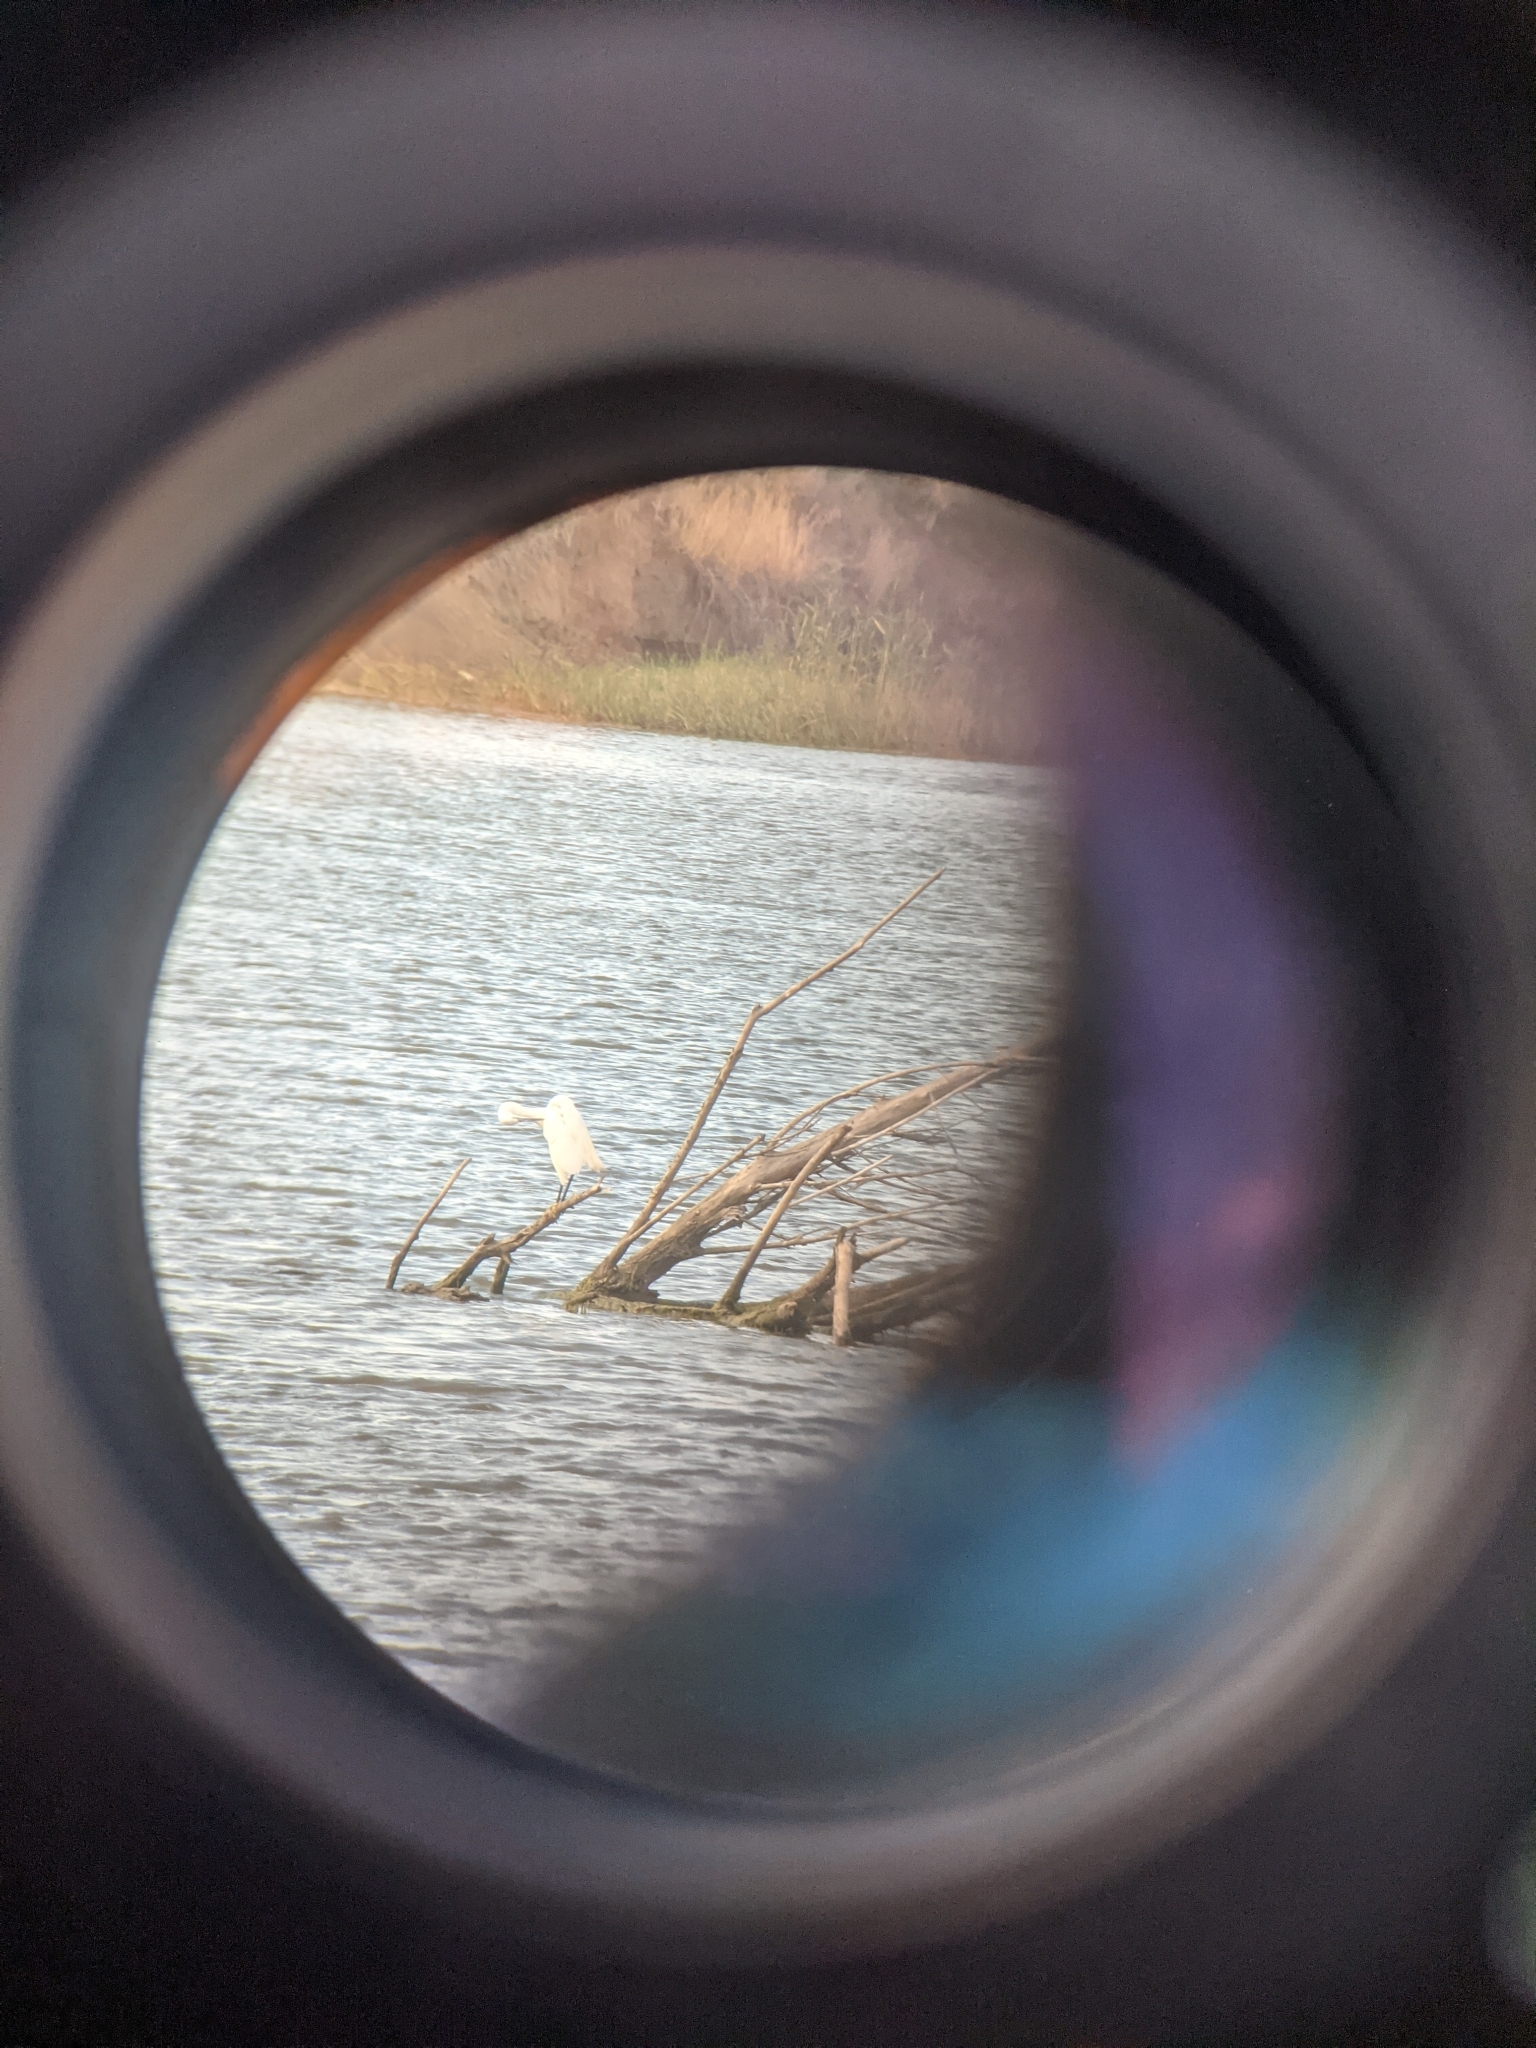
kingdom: Animalia
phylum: Chordata
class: Aves
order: Pelecaniformes
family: Ardeidae
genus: Egretta
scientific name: Egretta garzetta
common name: Little egret
